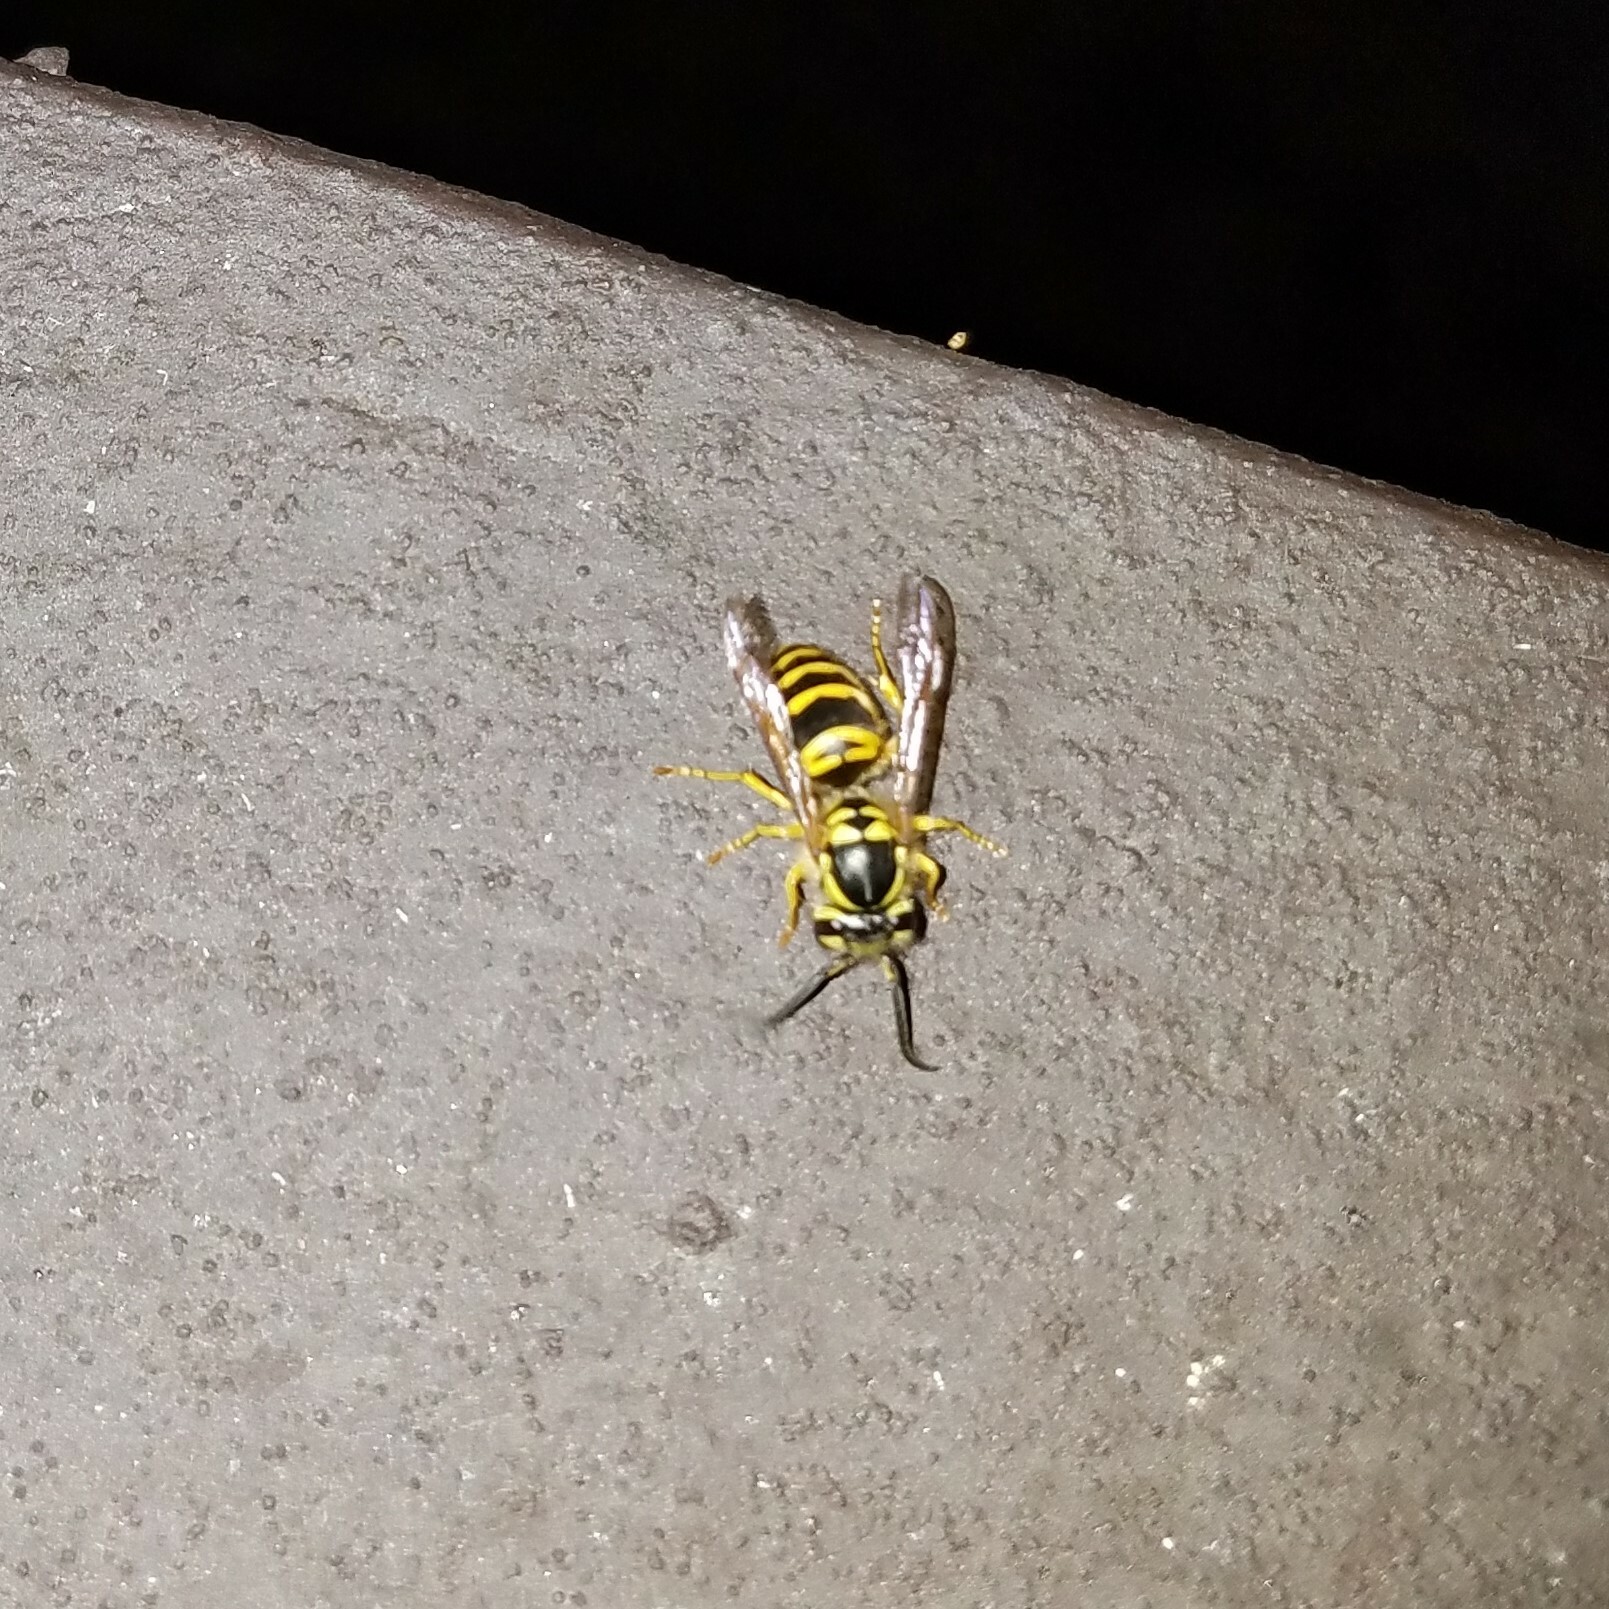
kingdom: Animalia
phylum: Arthropoda
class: Insecta
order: Hymenoptera
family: Vespidae
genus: Vespula
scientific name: Vespula maculifrons
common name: Eastern yellowjacket
